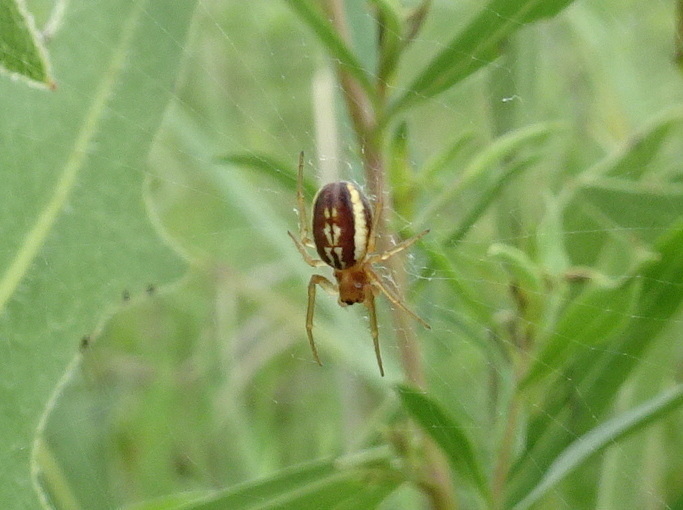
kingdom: Animalia
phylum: Arthropoda
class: Arachnida
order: Araneae
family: Araneidae
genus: Araneus
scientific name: Araneus pratensis
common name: Openfield orbweaver
